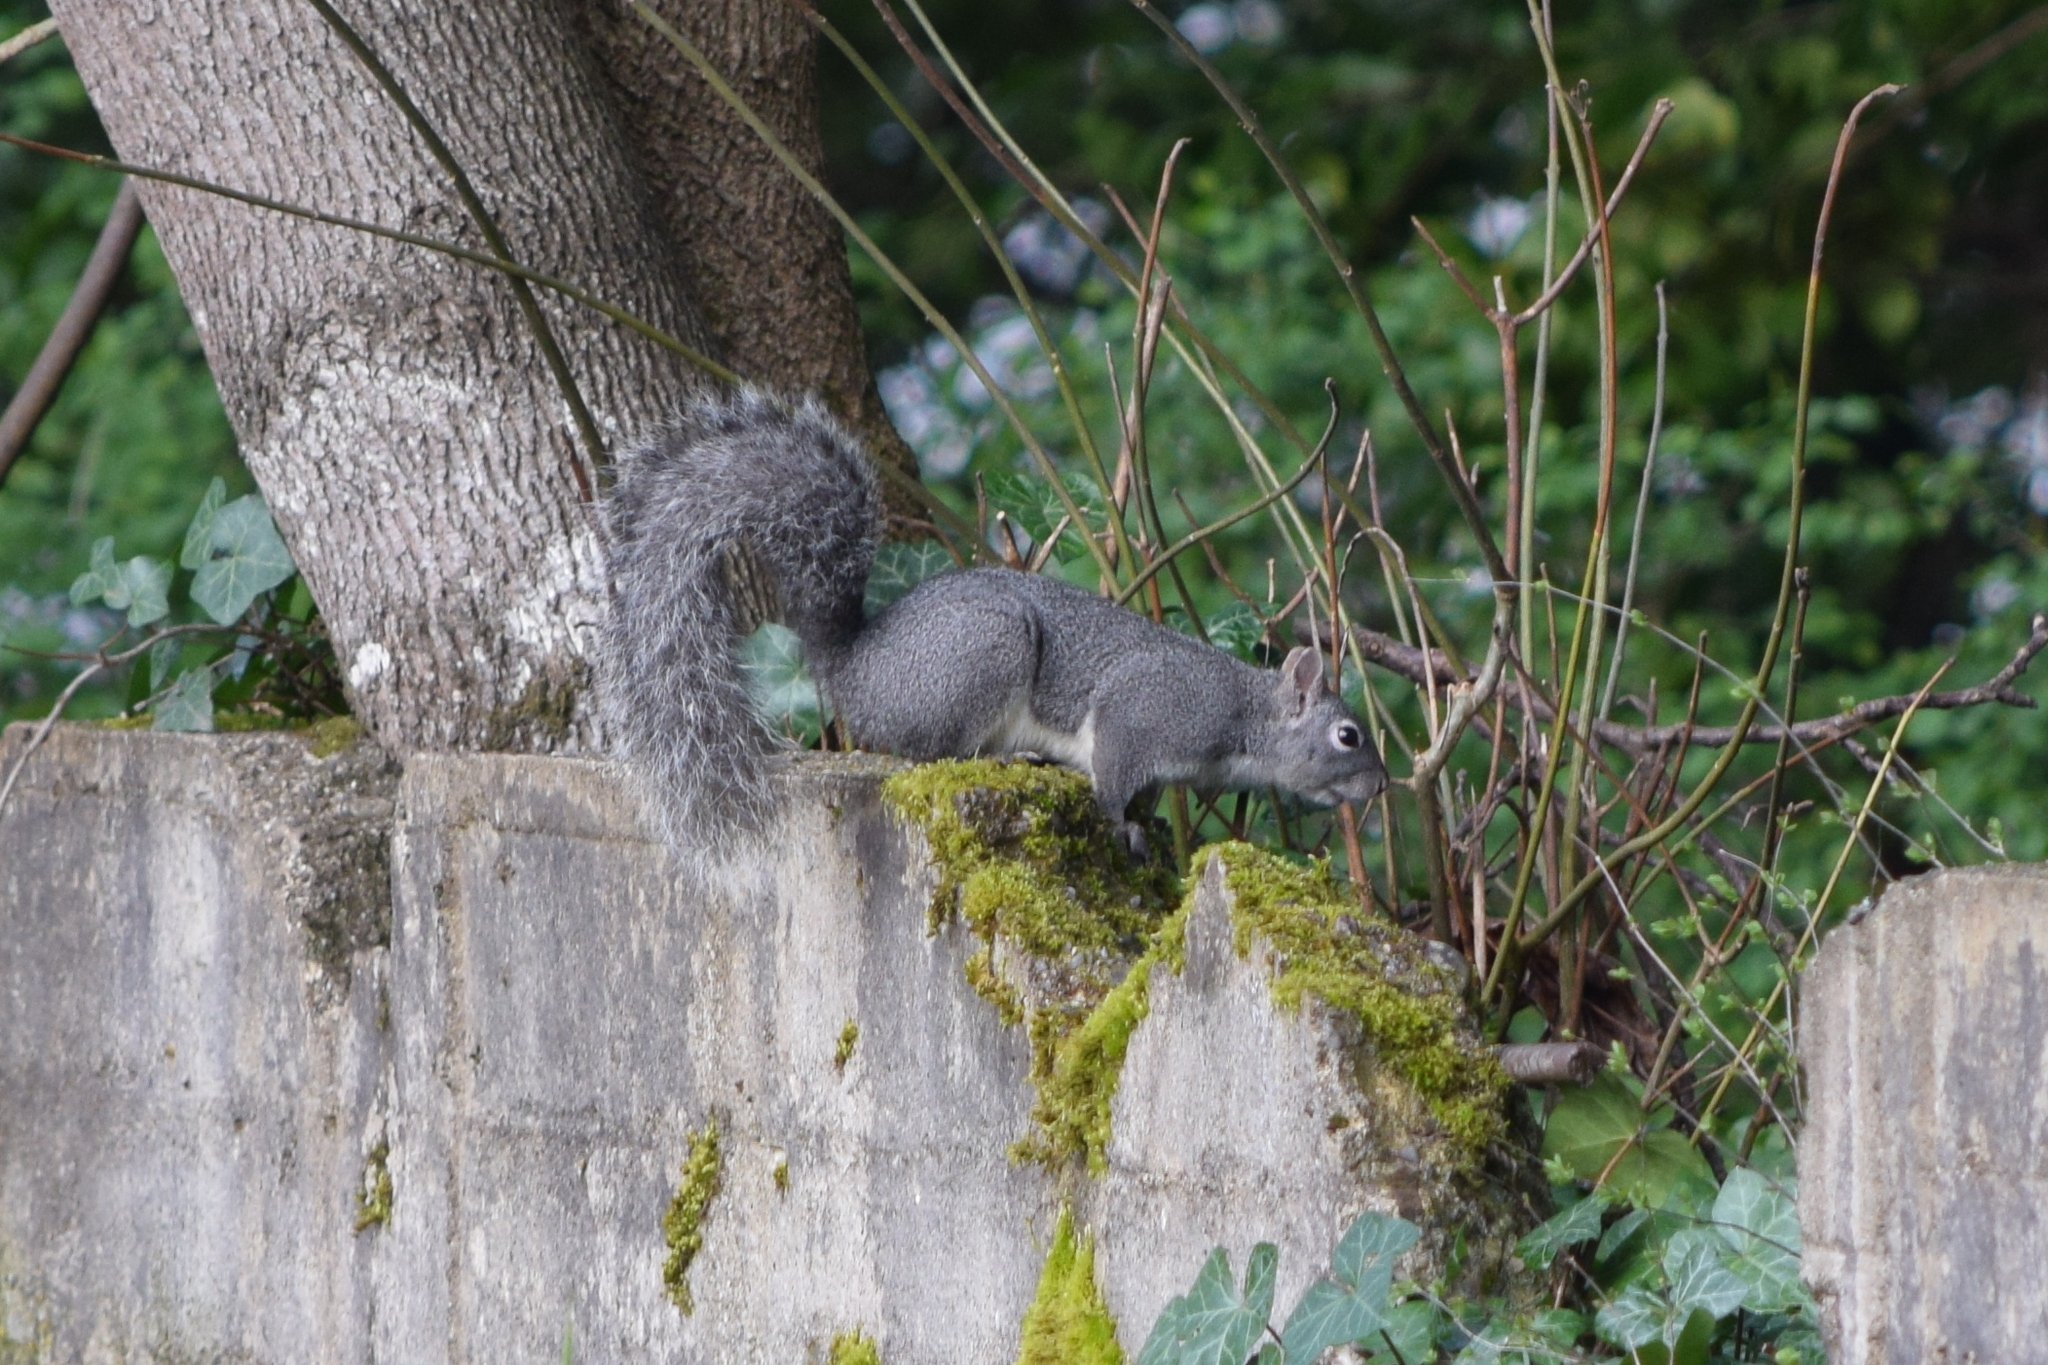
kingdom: Animalia
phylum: Chordata
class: Mammalia
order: Rodentia
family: Sciuridae
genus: Sciurus
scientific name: Sciurus griseus
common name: Western gray squirrel
